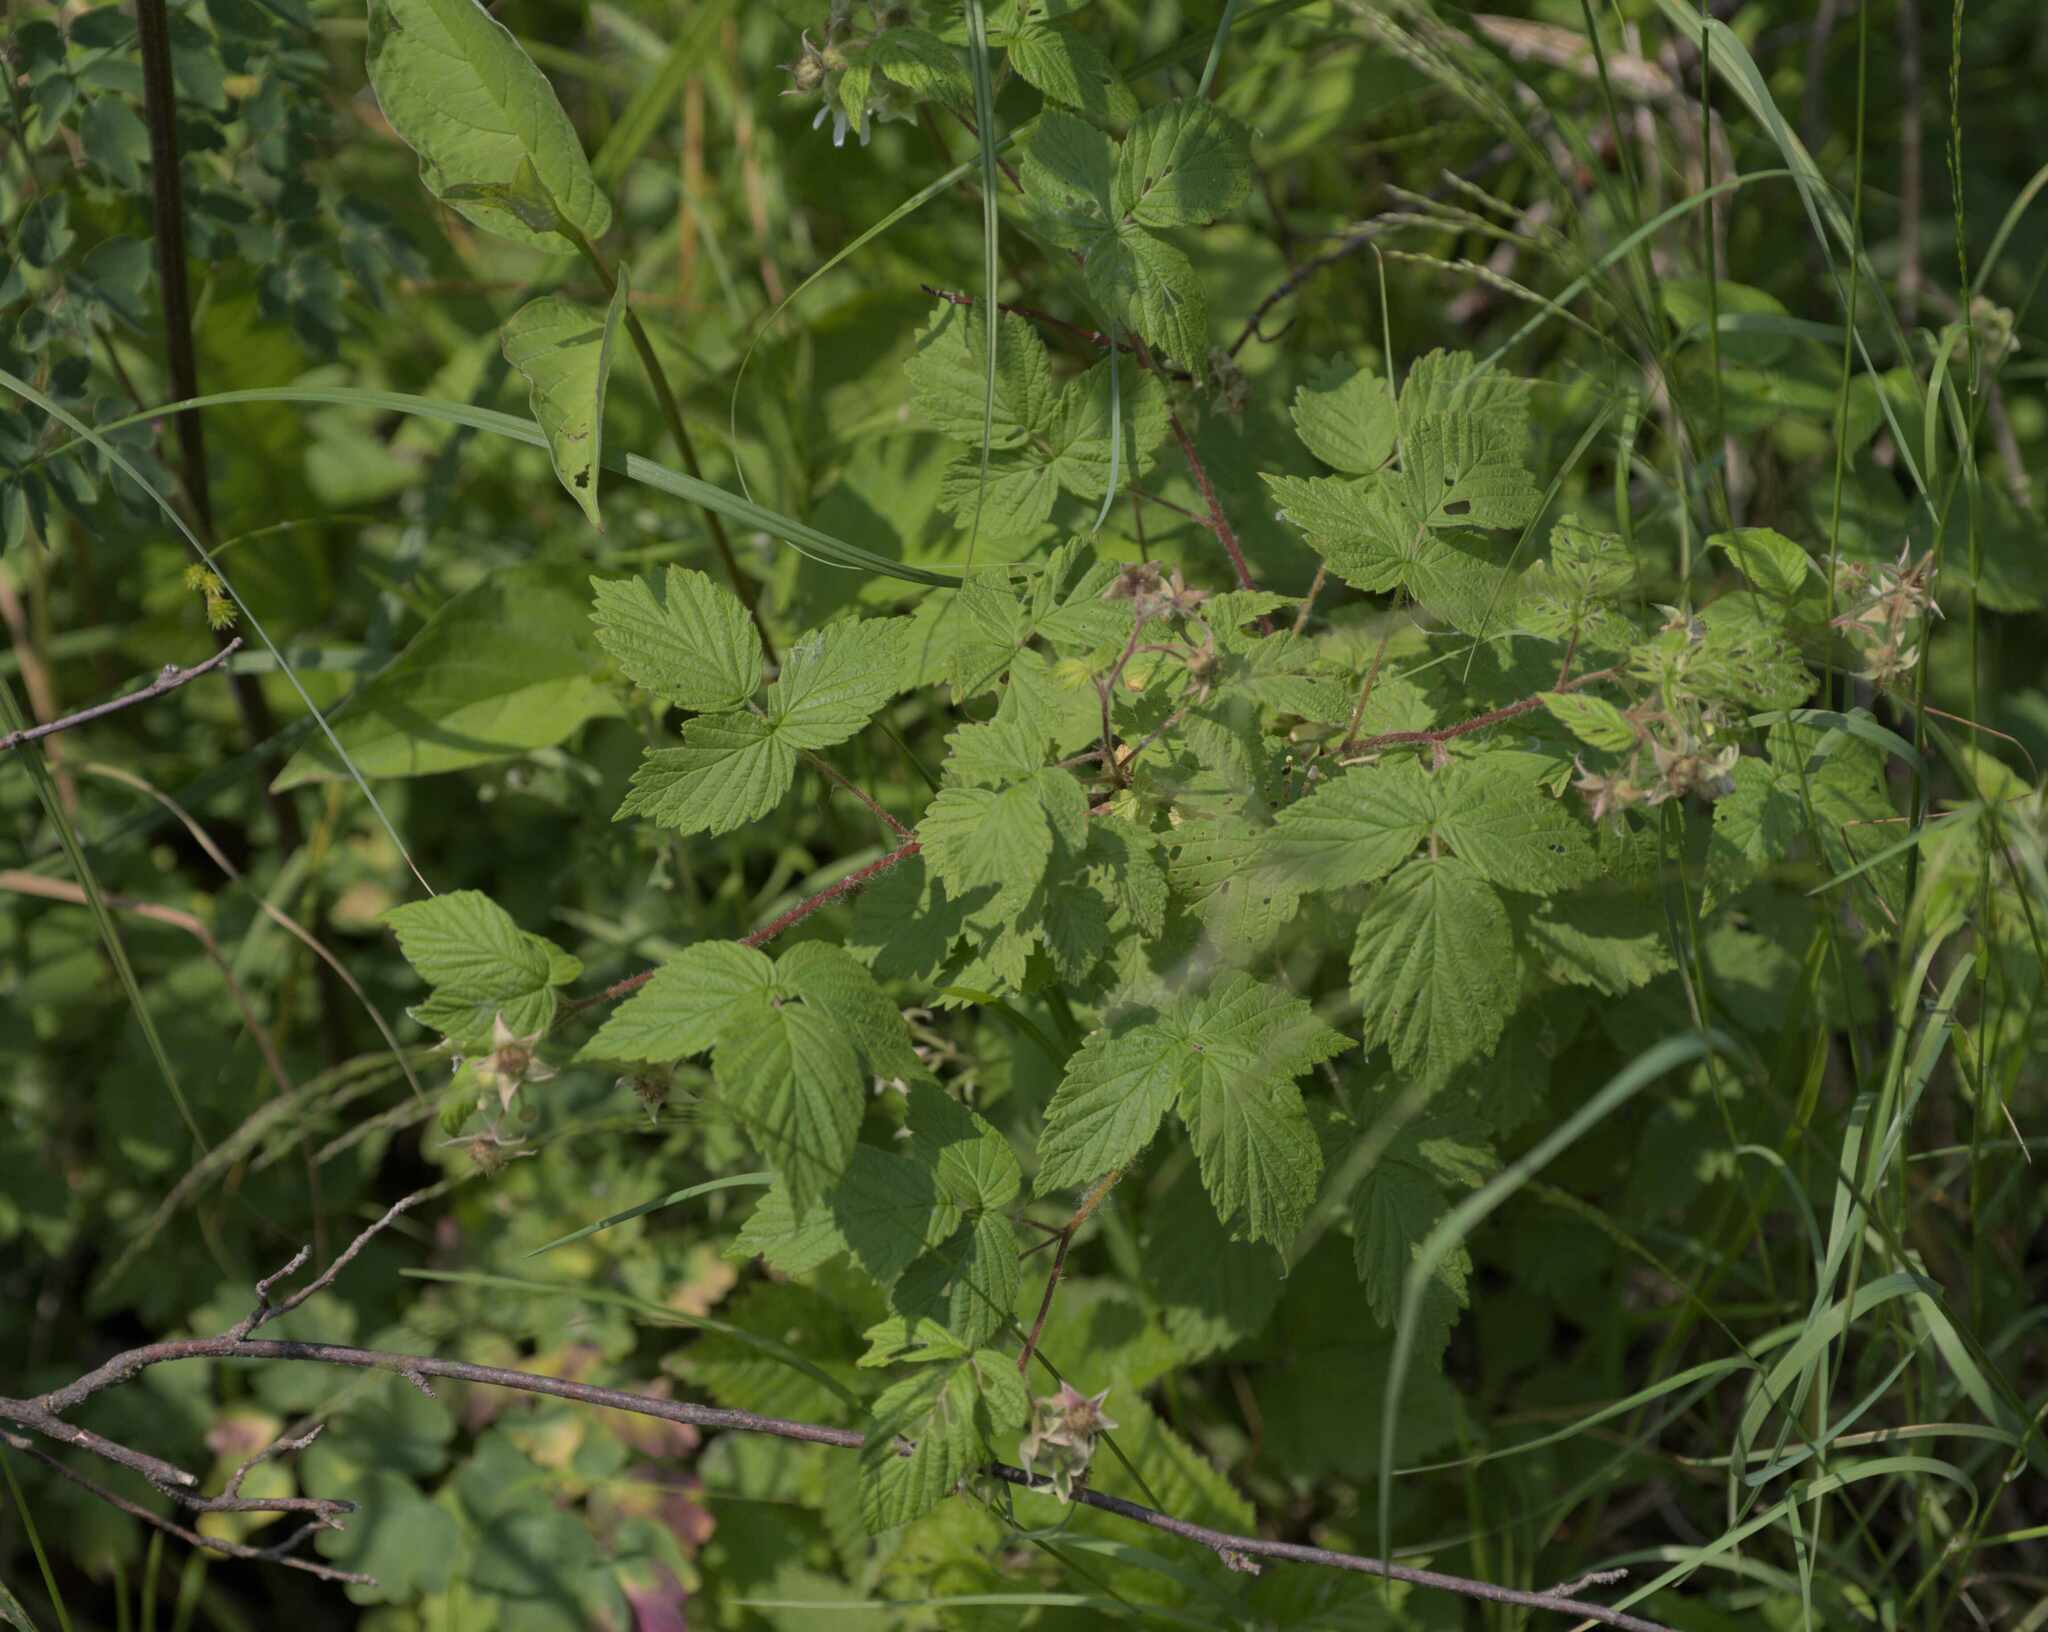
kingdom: Plantae
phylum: Tracheophyta
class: Magnoliopsida
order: Rosales
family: Rosaceae
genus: Rubus
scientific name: Rubus idaeus
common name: Raspberry
